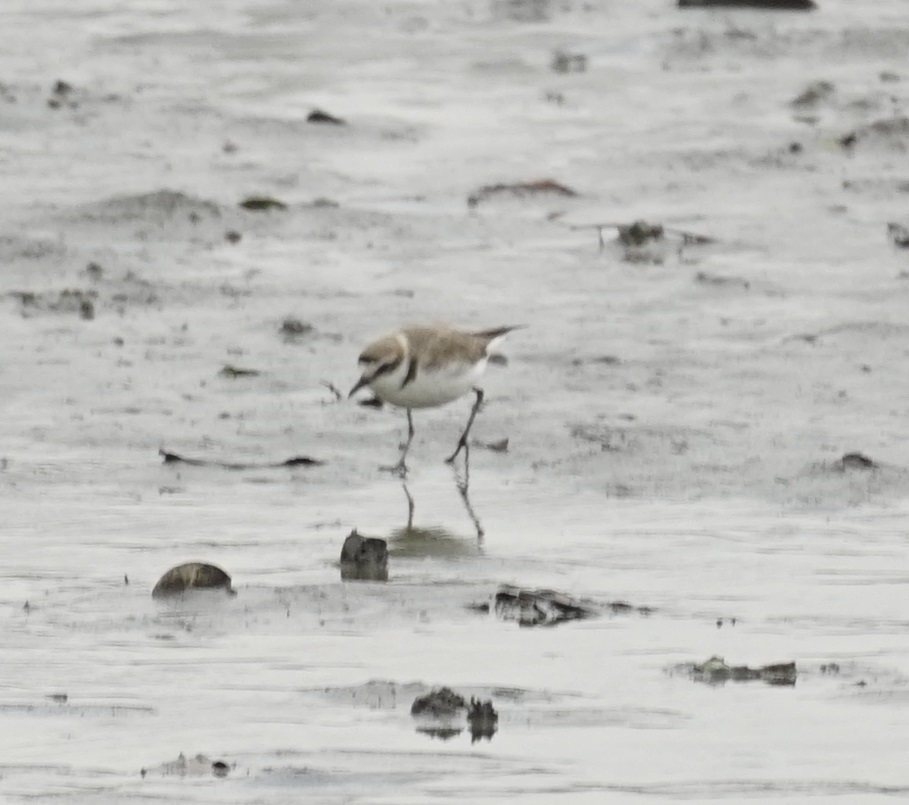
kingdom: Animalia
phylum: Chordata
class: Aves
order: Charadriiformes
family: Charadriidae
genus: Charadrius
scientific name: Charadrius alexandrinus
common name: Kentish plover
